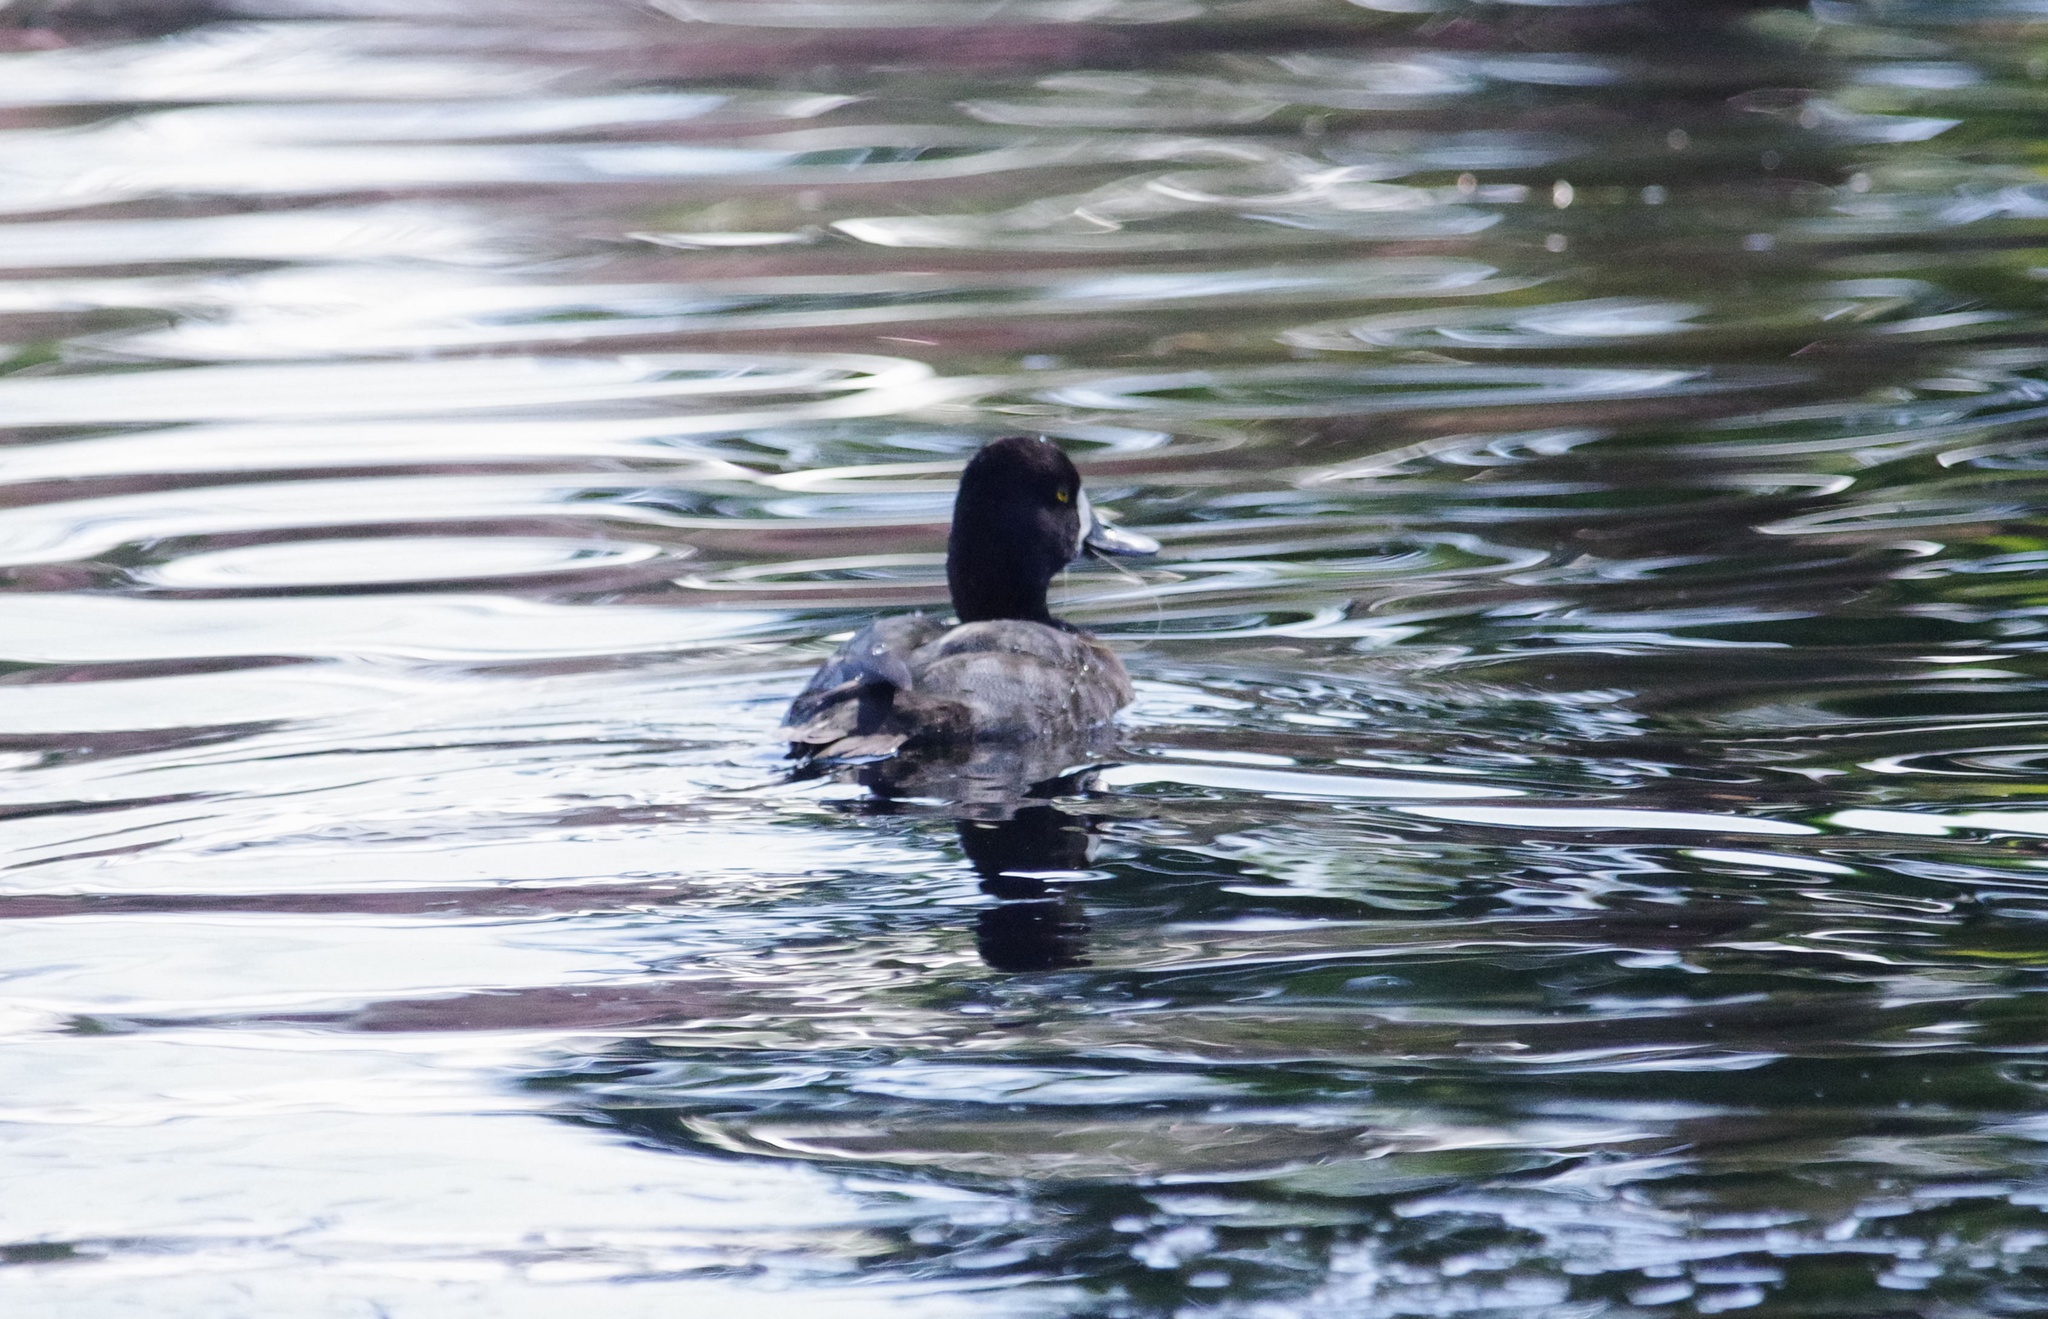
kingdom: Animalia
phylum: Chordata
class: Aves
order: Anseriformes
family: Anatidae
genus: Aythya
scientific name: Aythya affinis
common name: Lesser scaup
